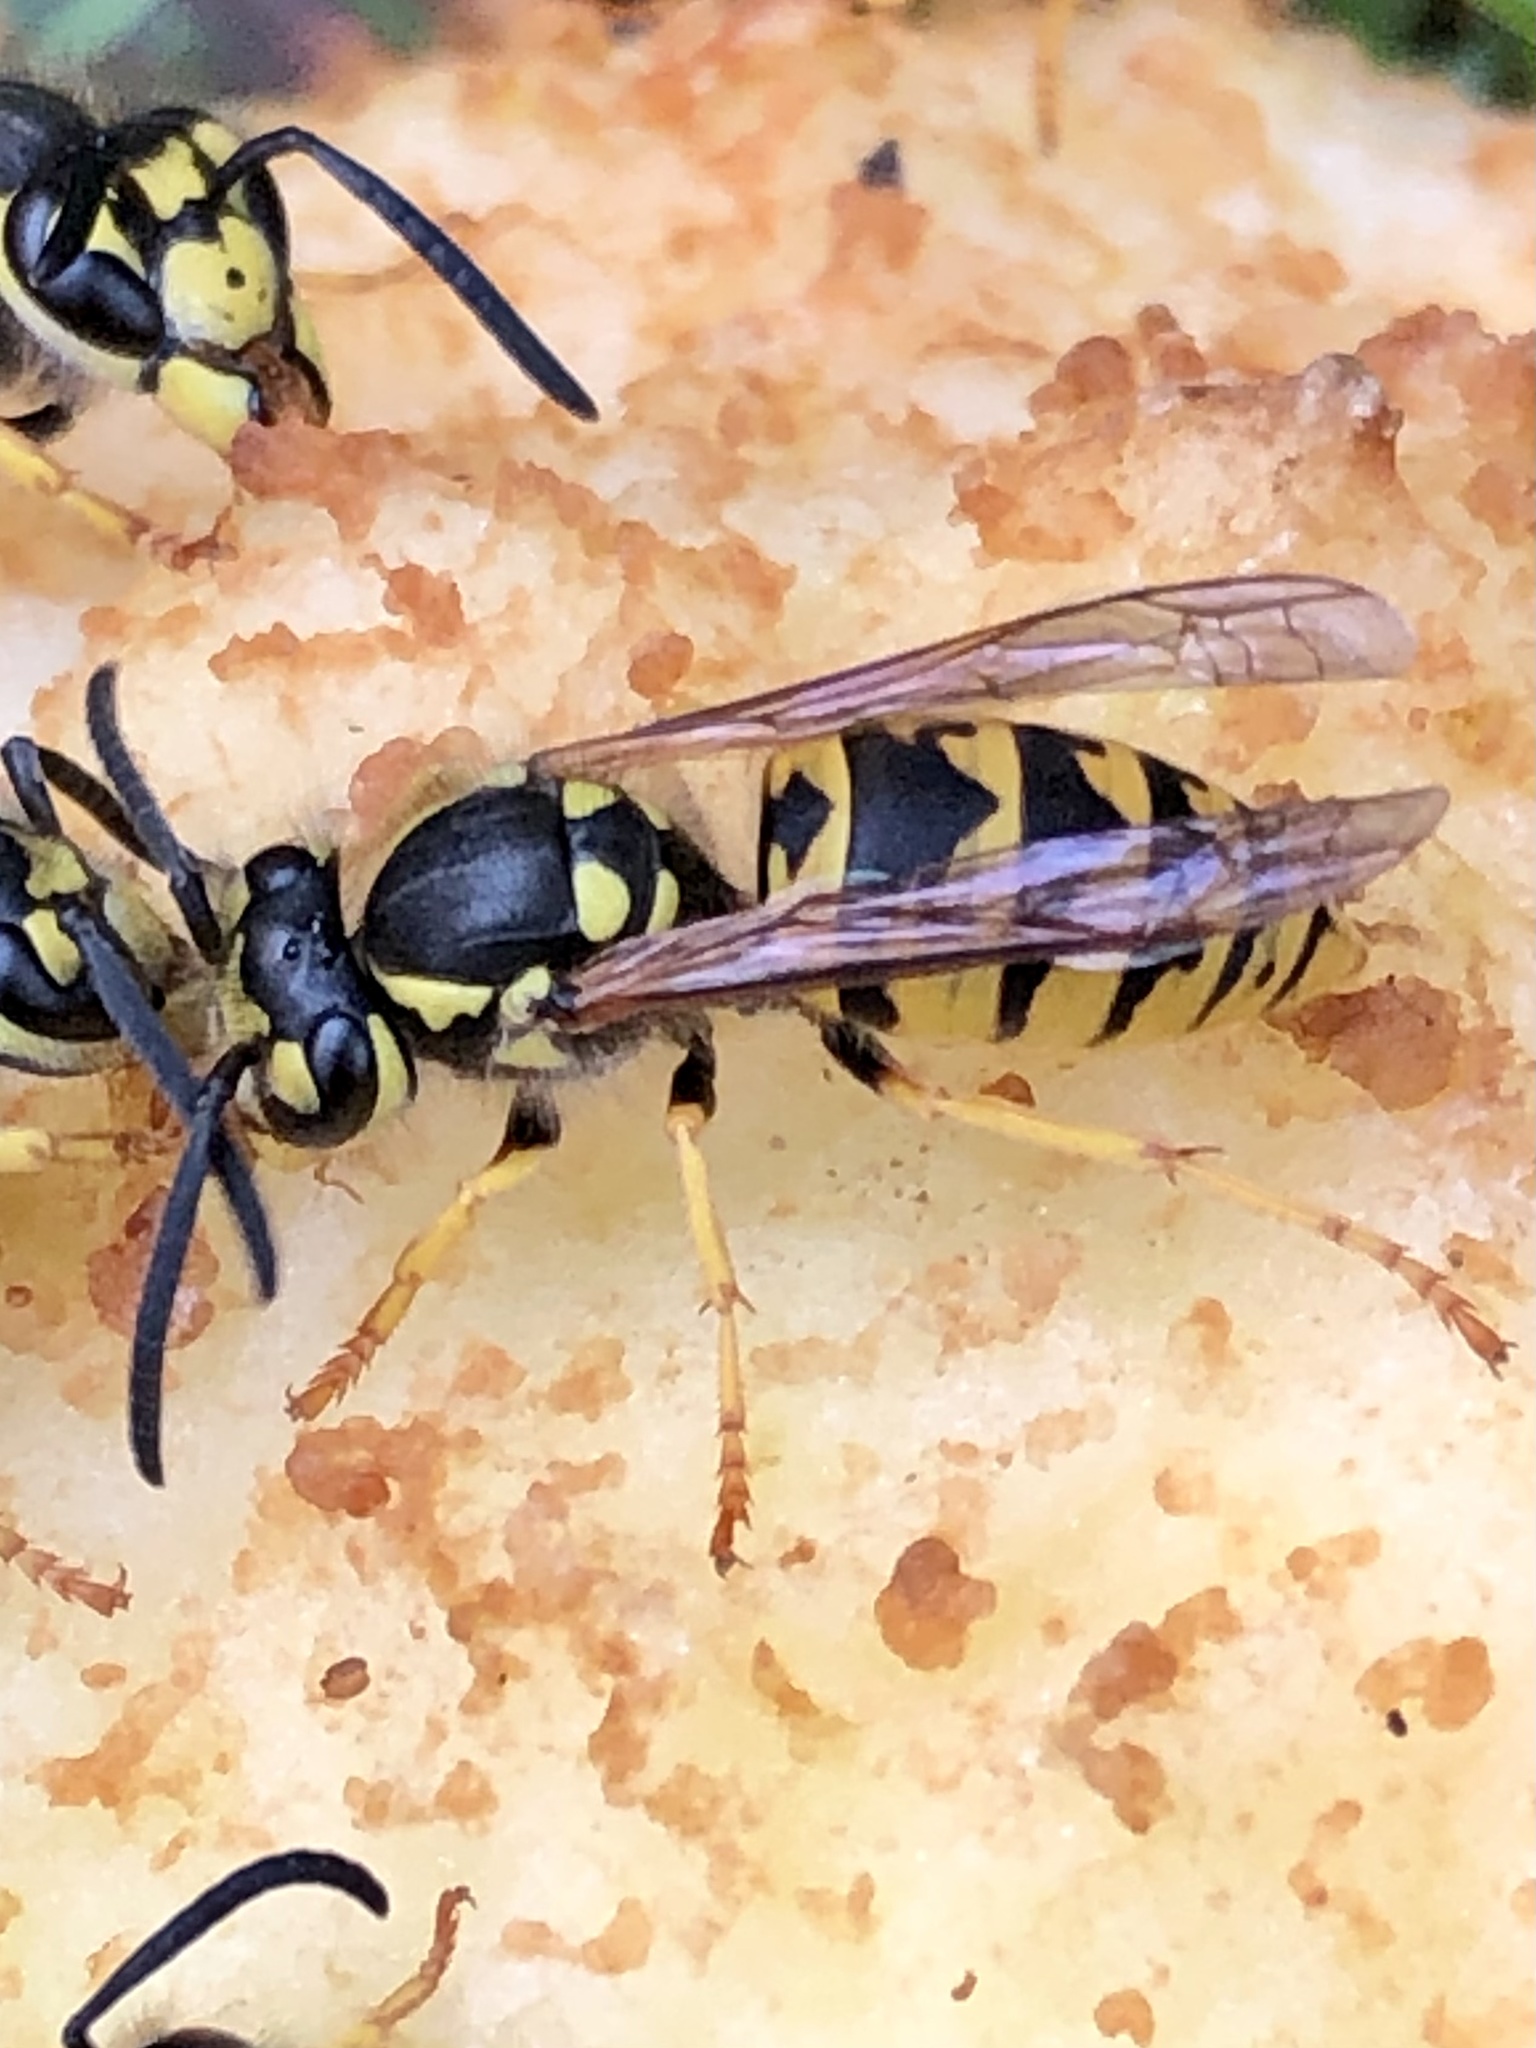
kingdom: Animalia
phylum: Arthropoda
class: Insecta
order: Hymenoptera
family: Vespidae
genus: Vespula
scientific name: Vespula germanica
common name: German wasp
